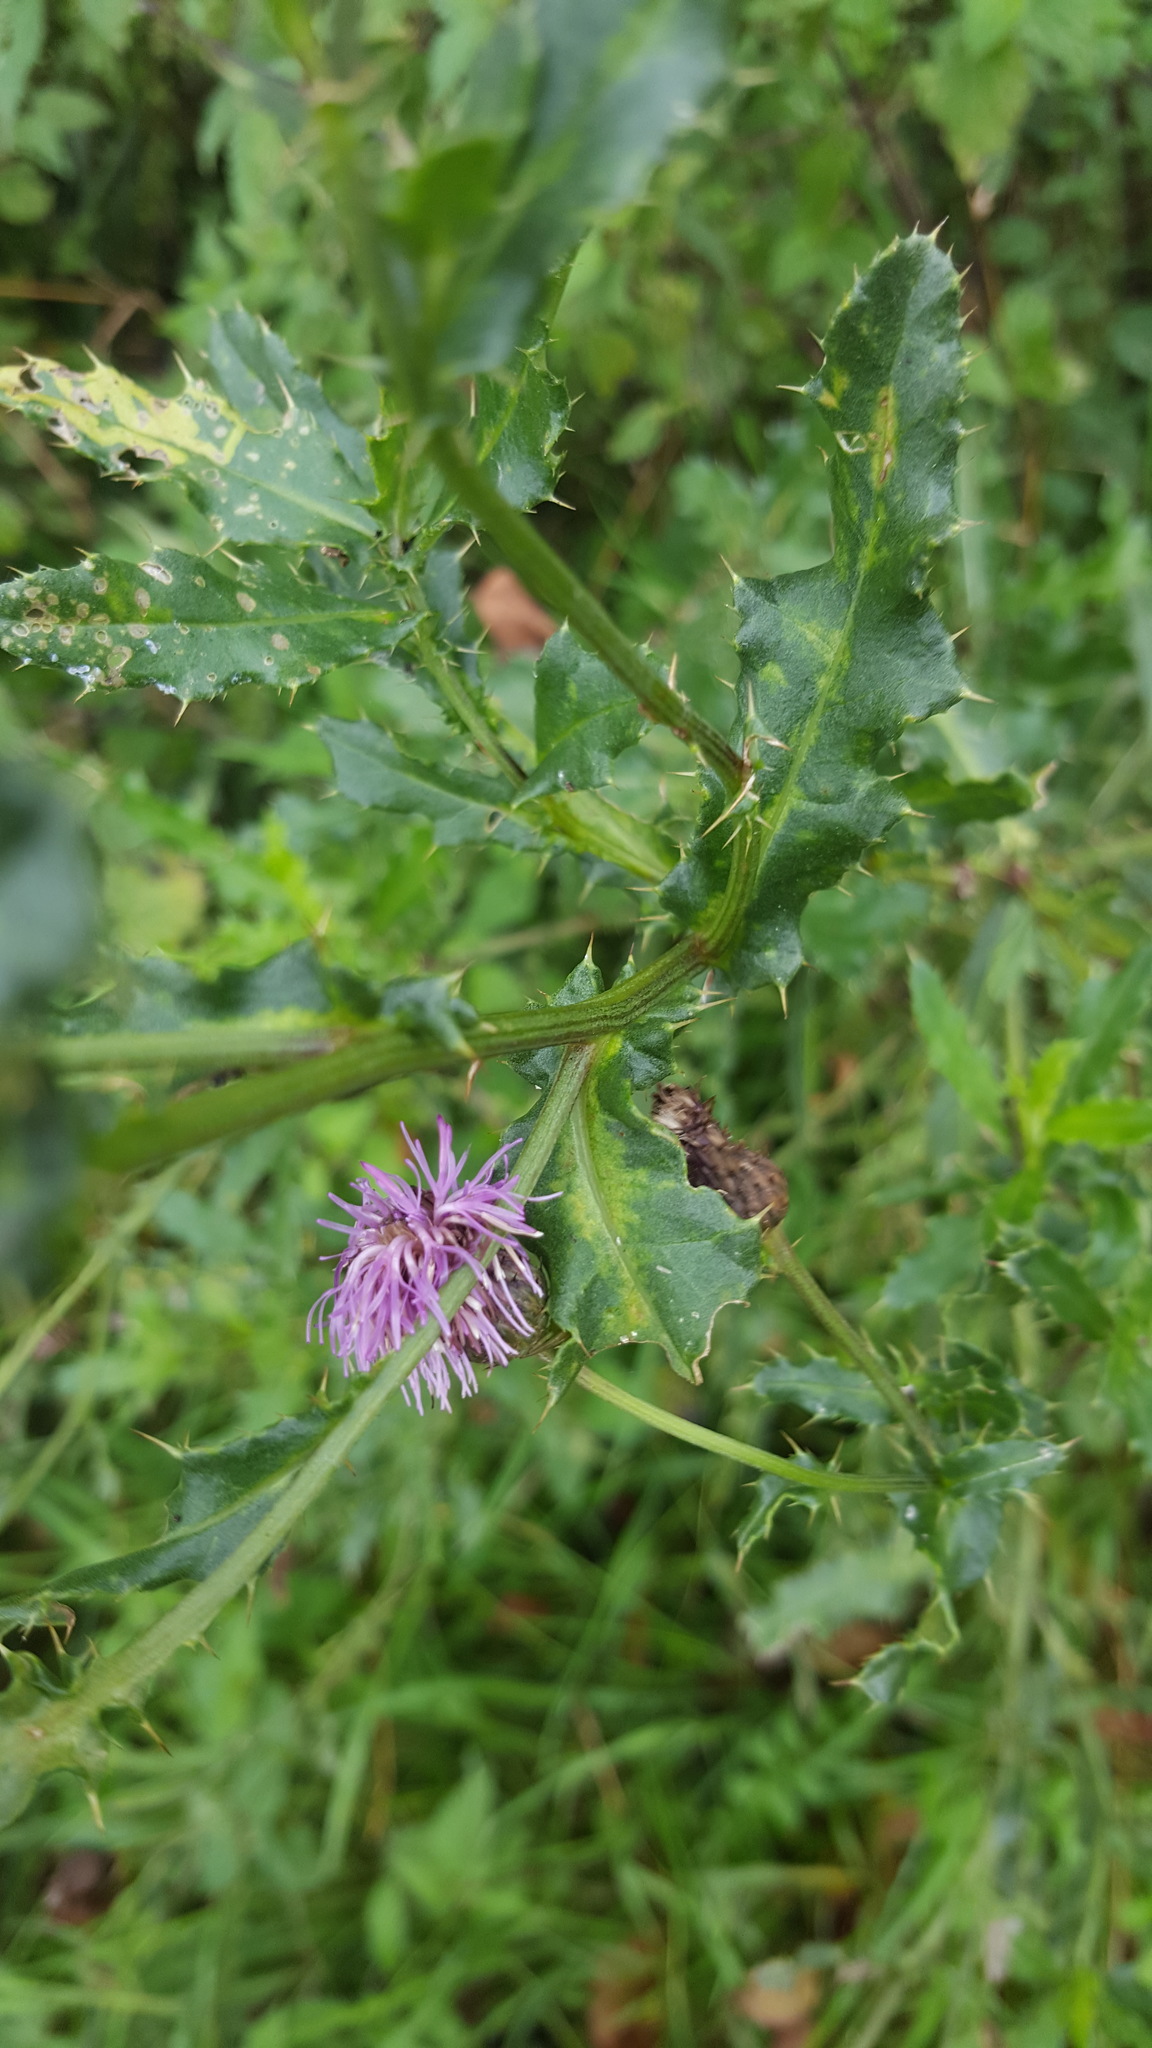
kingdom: Plantae
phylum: Tracheophyta
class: Magnoliopsida
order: Asterales
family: Asteraceae
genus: Cirsium
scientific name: Cirsium arvense
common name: Creeping thistle
